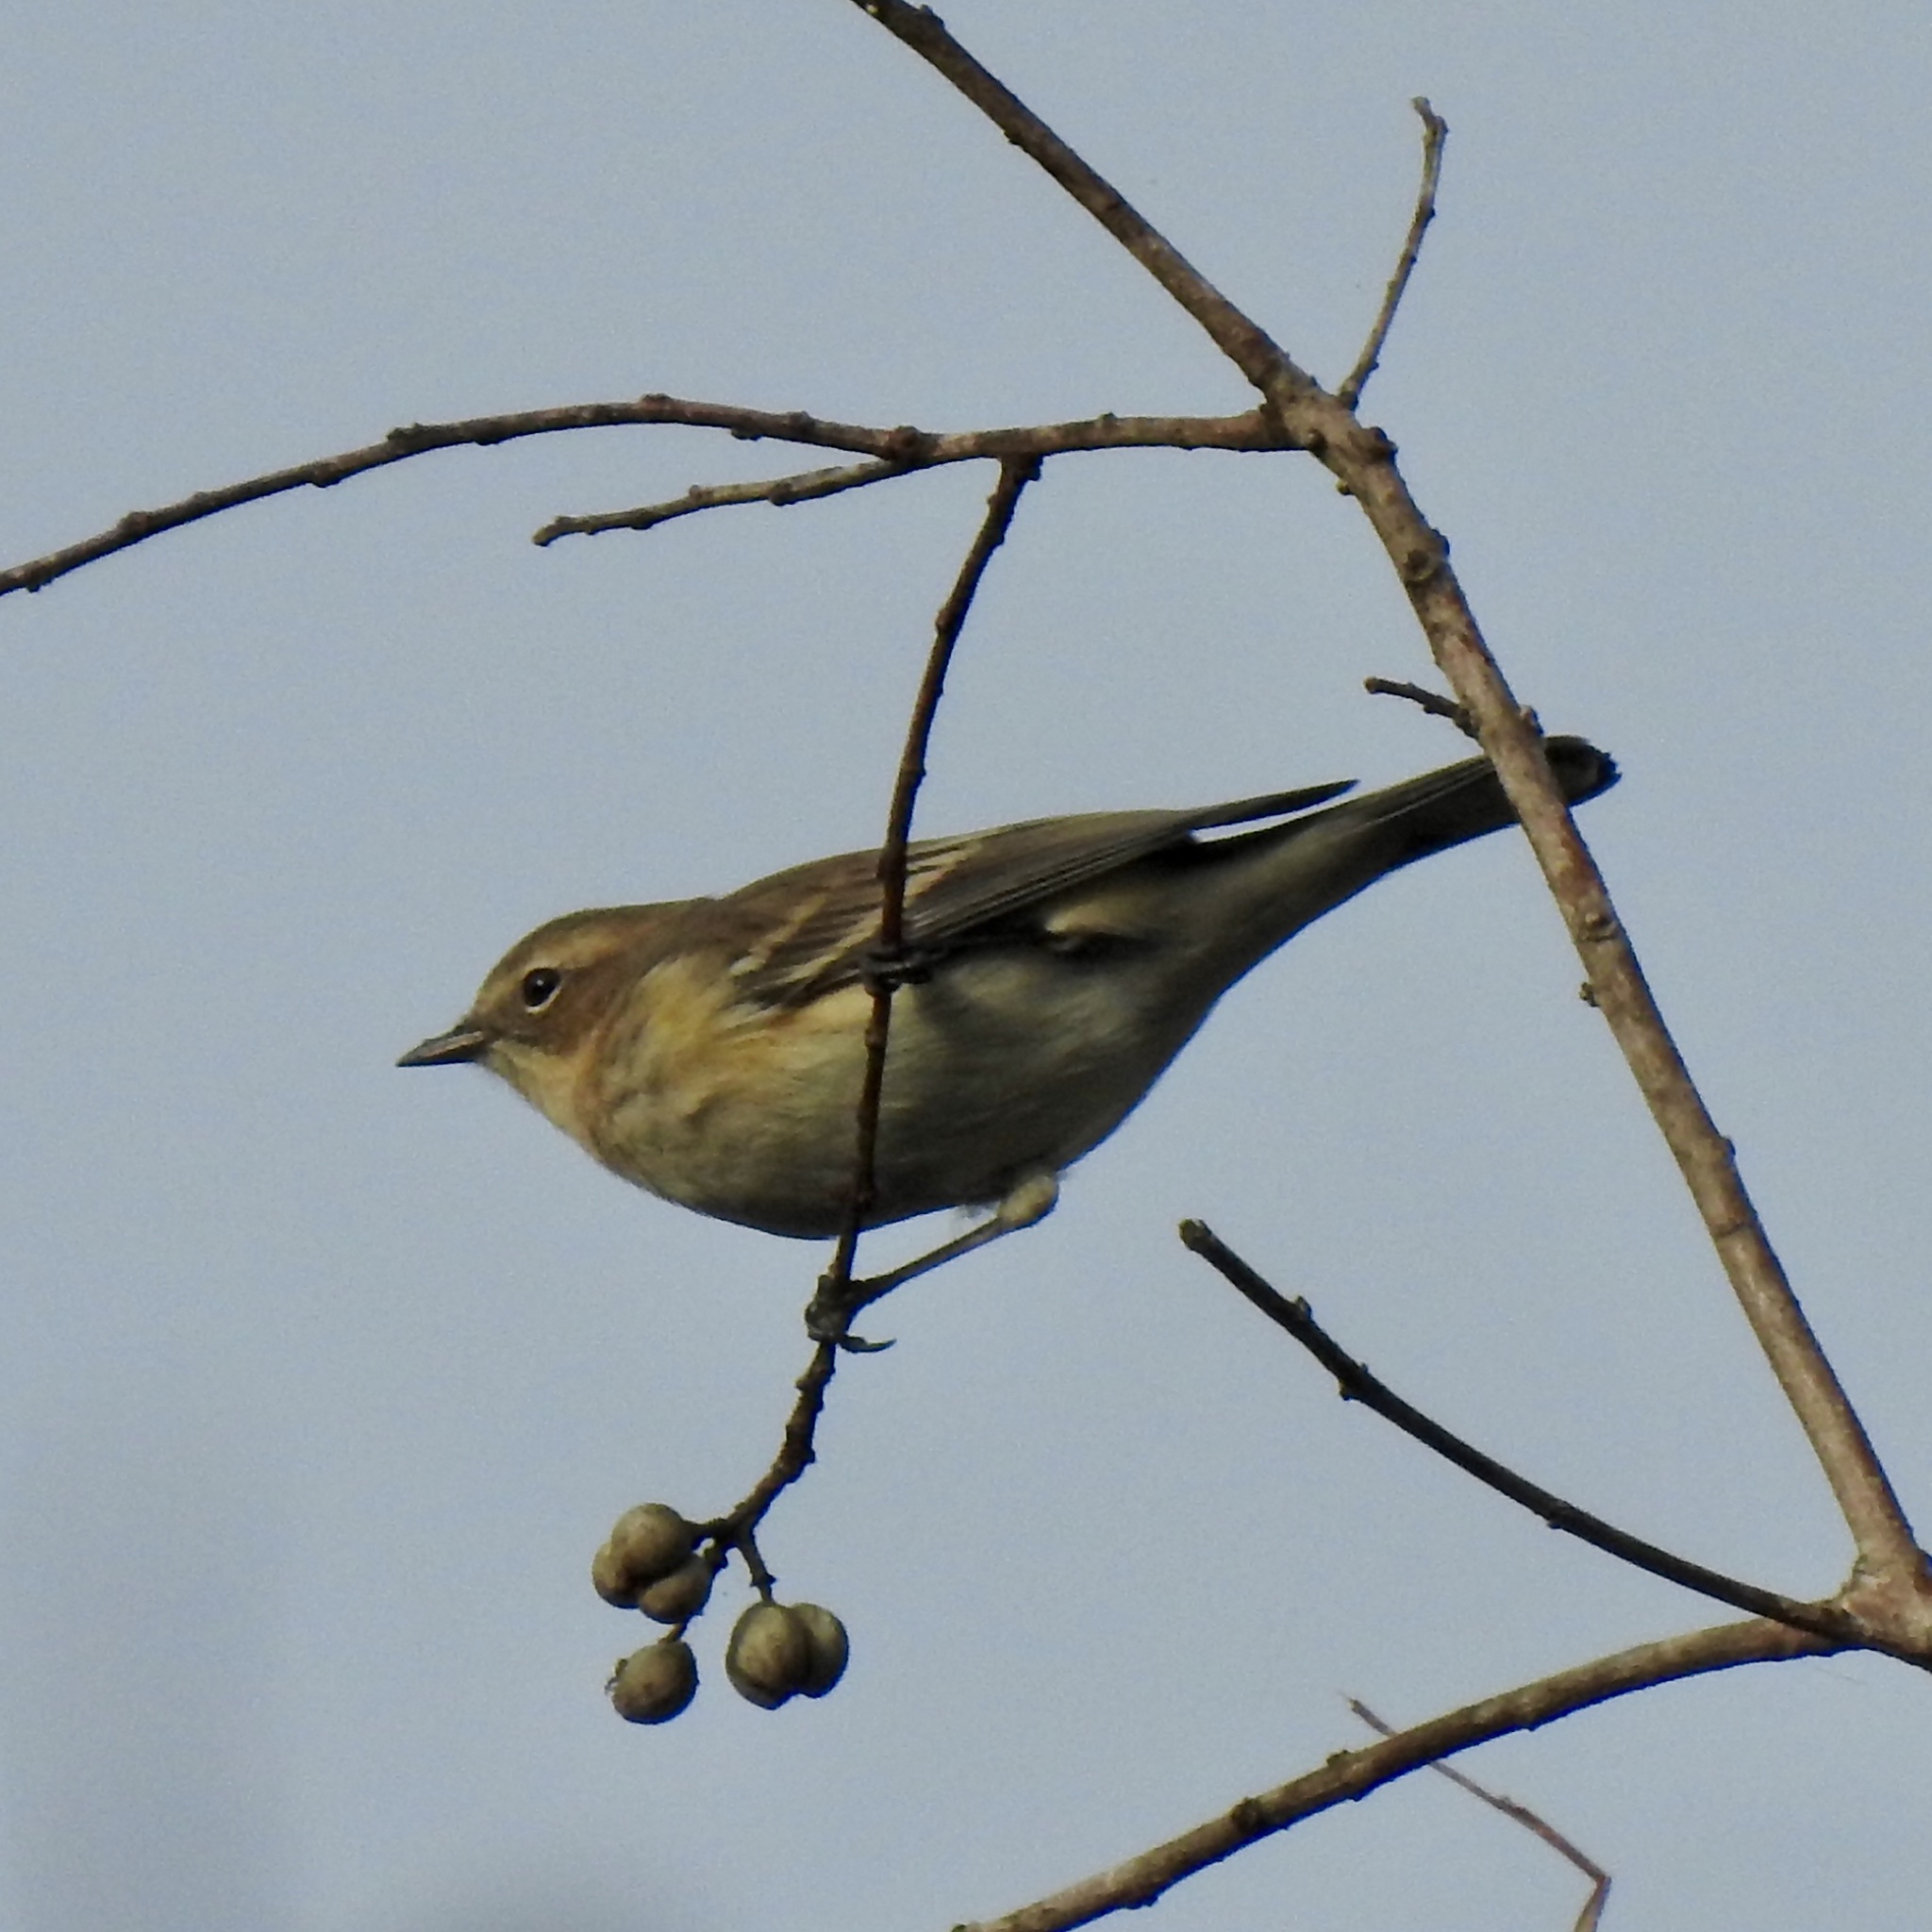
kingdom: Animalia
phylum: Chordata
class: Aves
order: Passeriformes
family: Parulidae
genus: Setophaga
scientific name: Setophaga pinus
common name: Pine warbler
